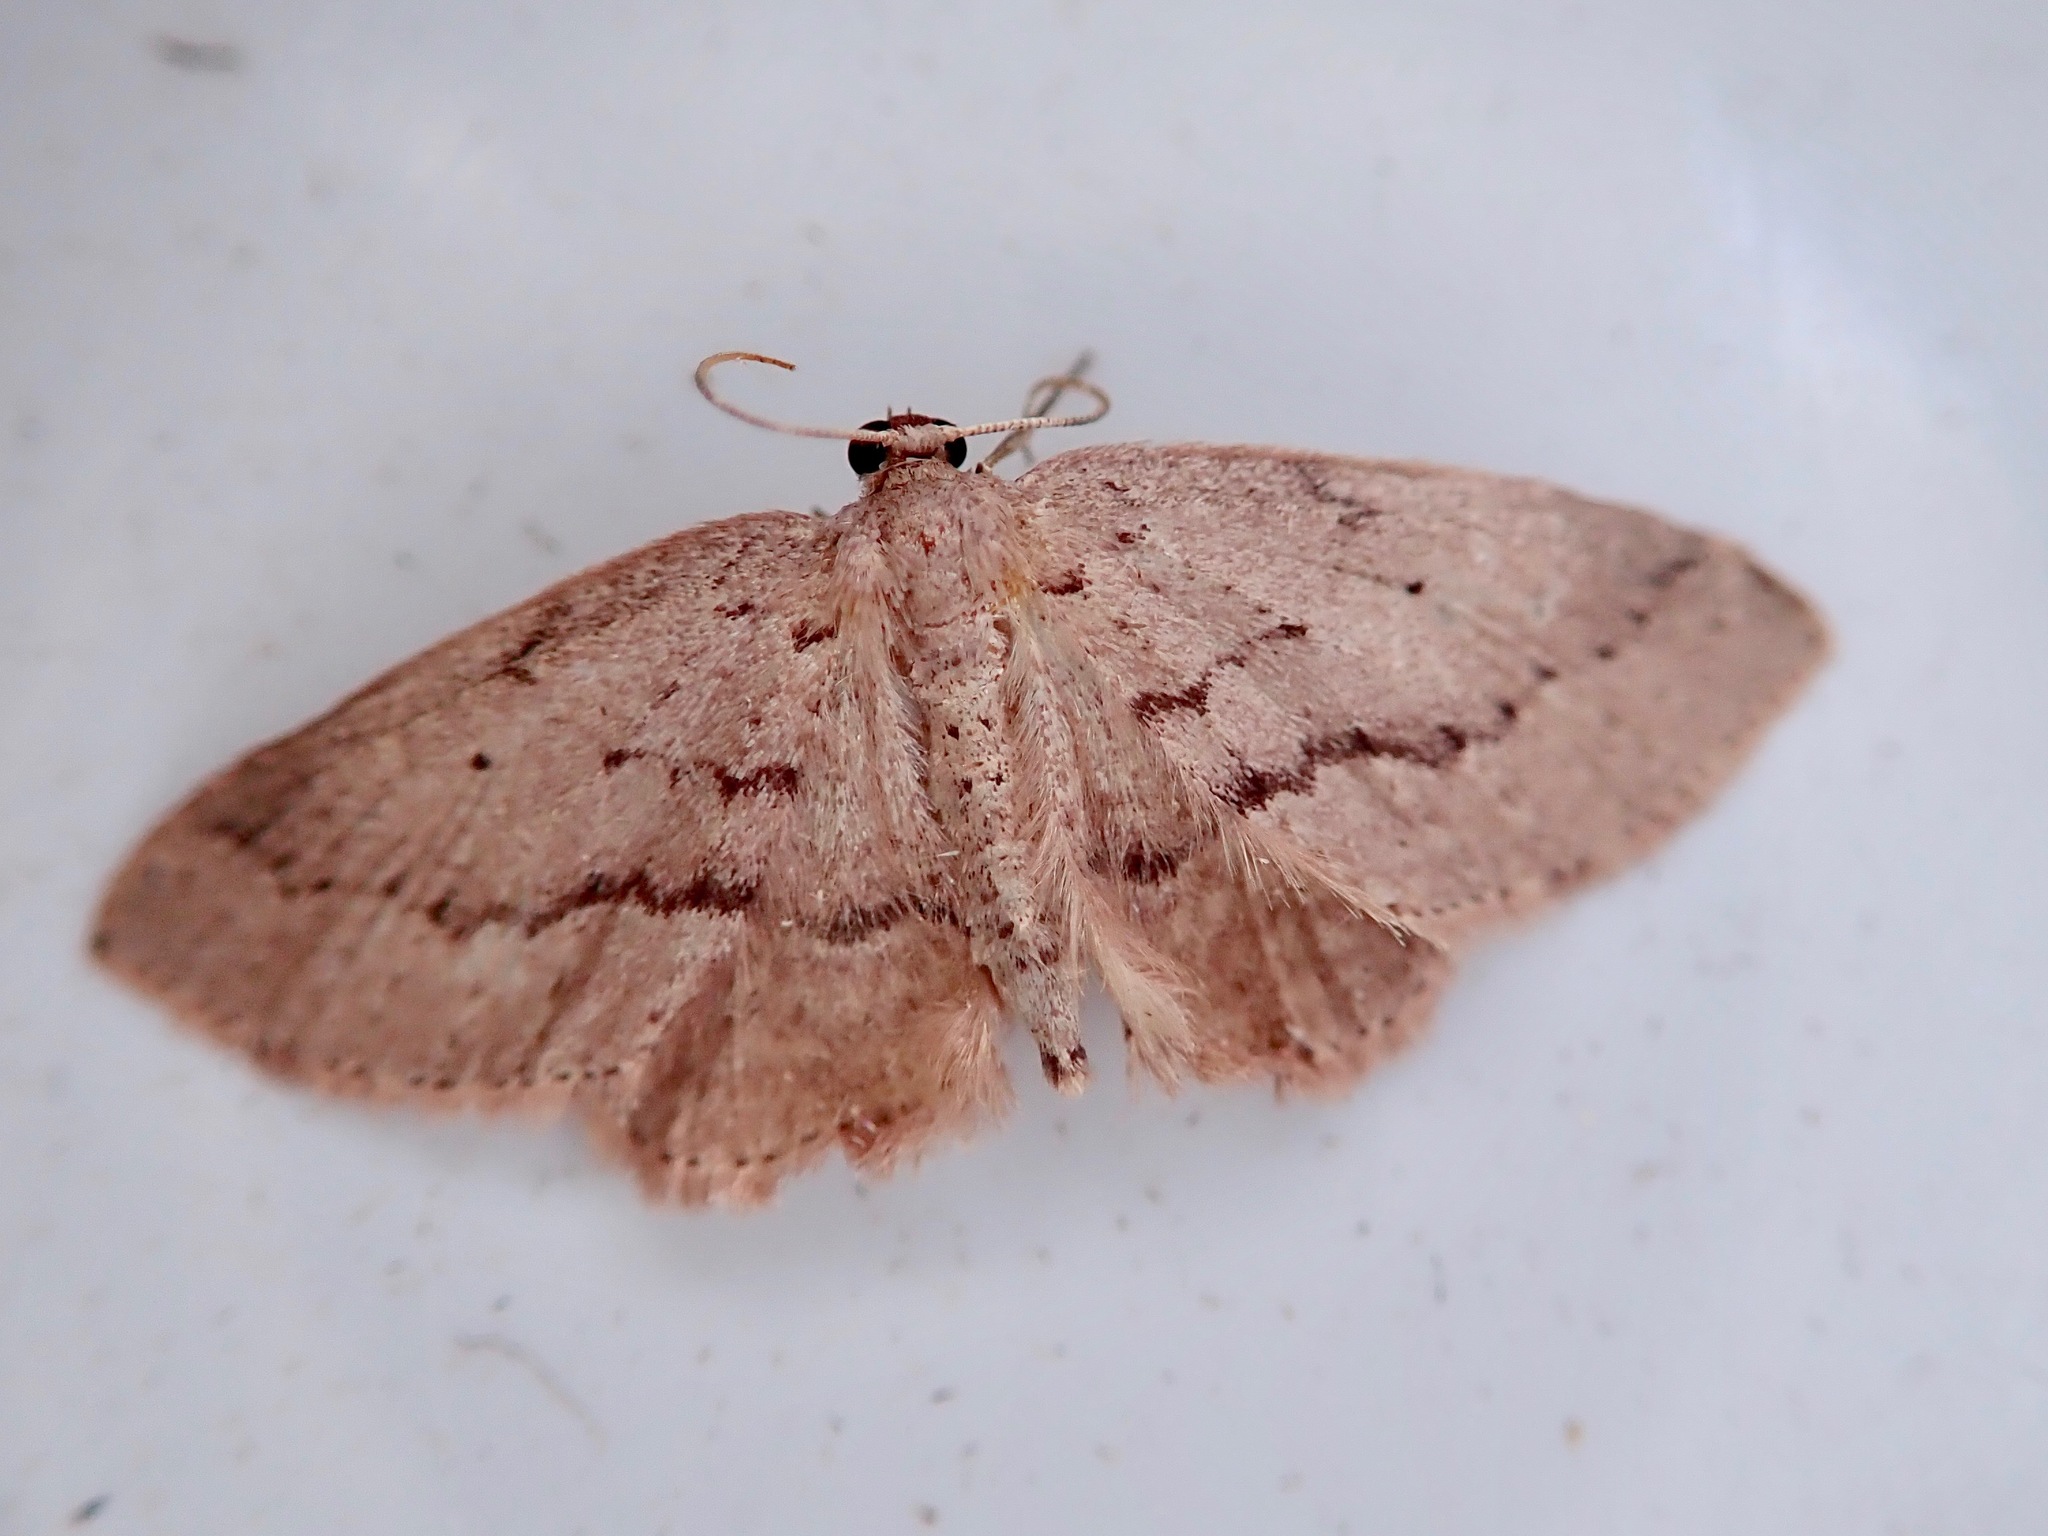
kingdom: Animalia
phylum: Arthropoda
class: Insecta
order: Lepidoptera
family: Geometridae
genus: Poecilasthena
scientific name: Poecilasthena schistaria
